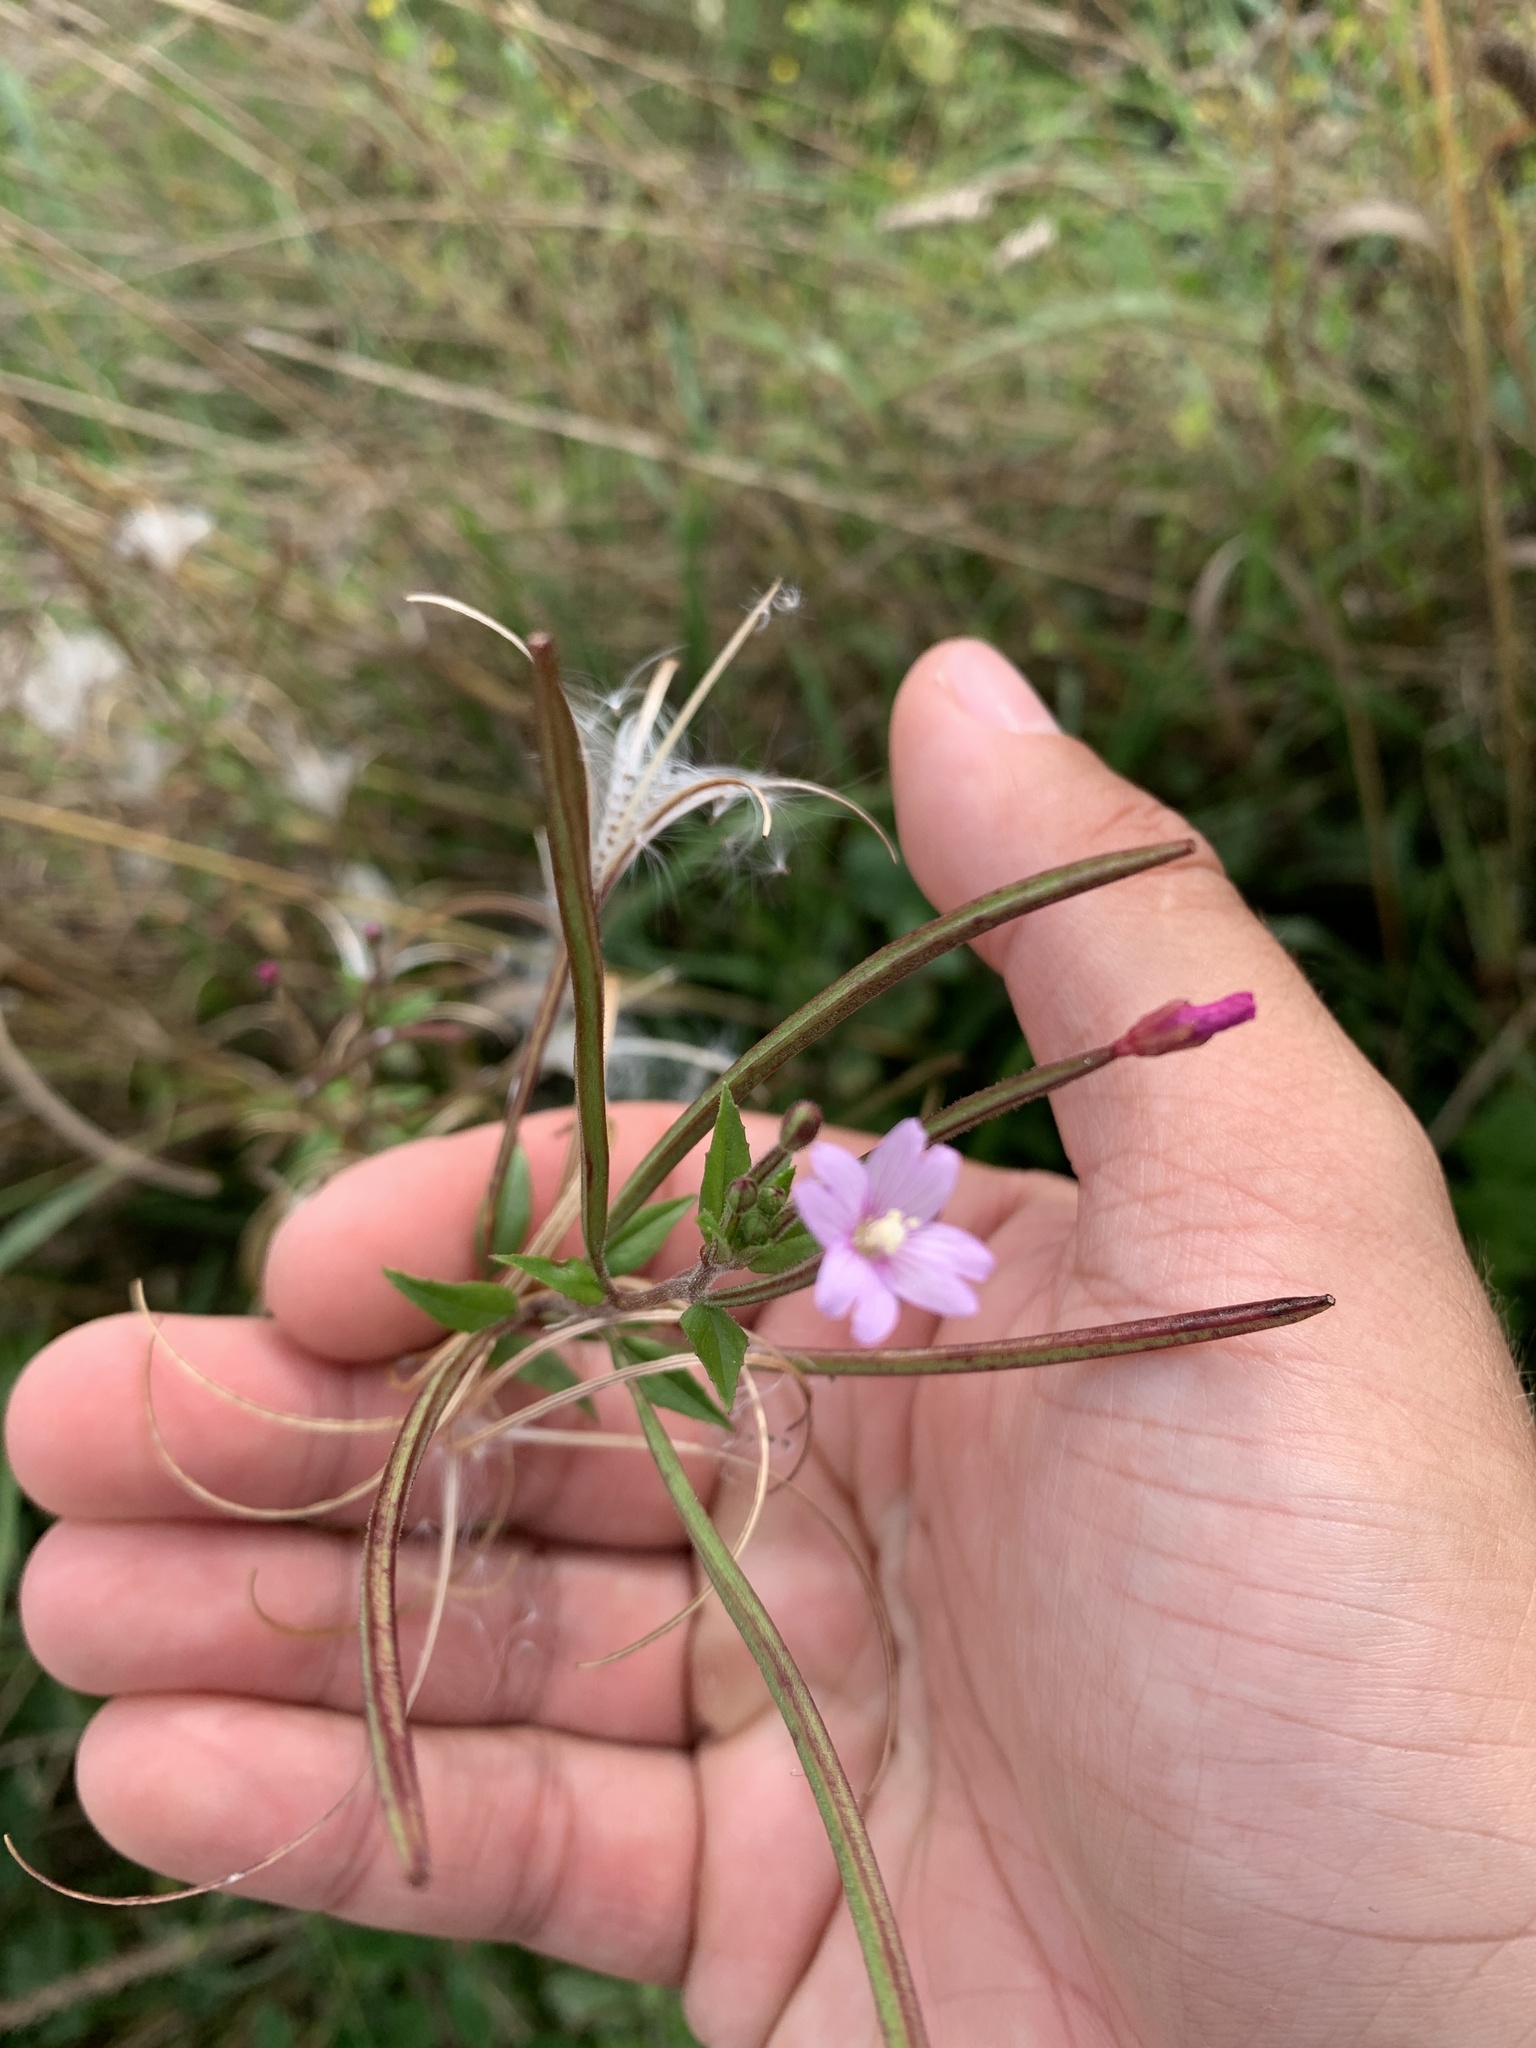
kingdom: Plantae
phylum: Tracheophyta
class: Magnoliopsida
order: Myrtales
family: Onagraceae
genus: Epilobium
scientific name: Epilobium parviflorum
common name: Hoary willowherb
